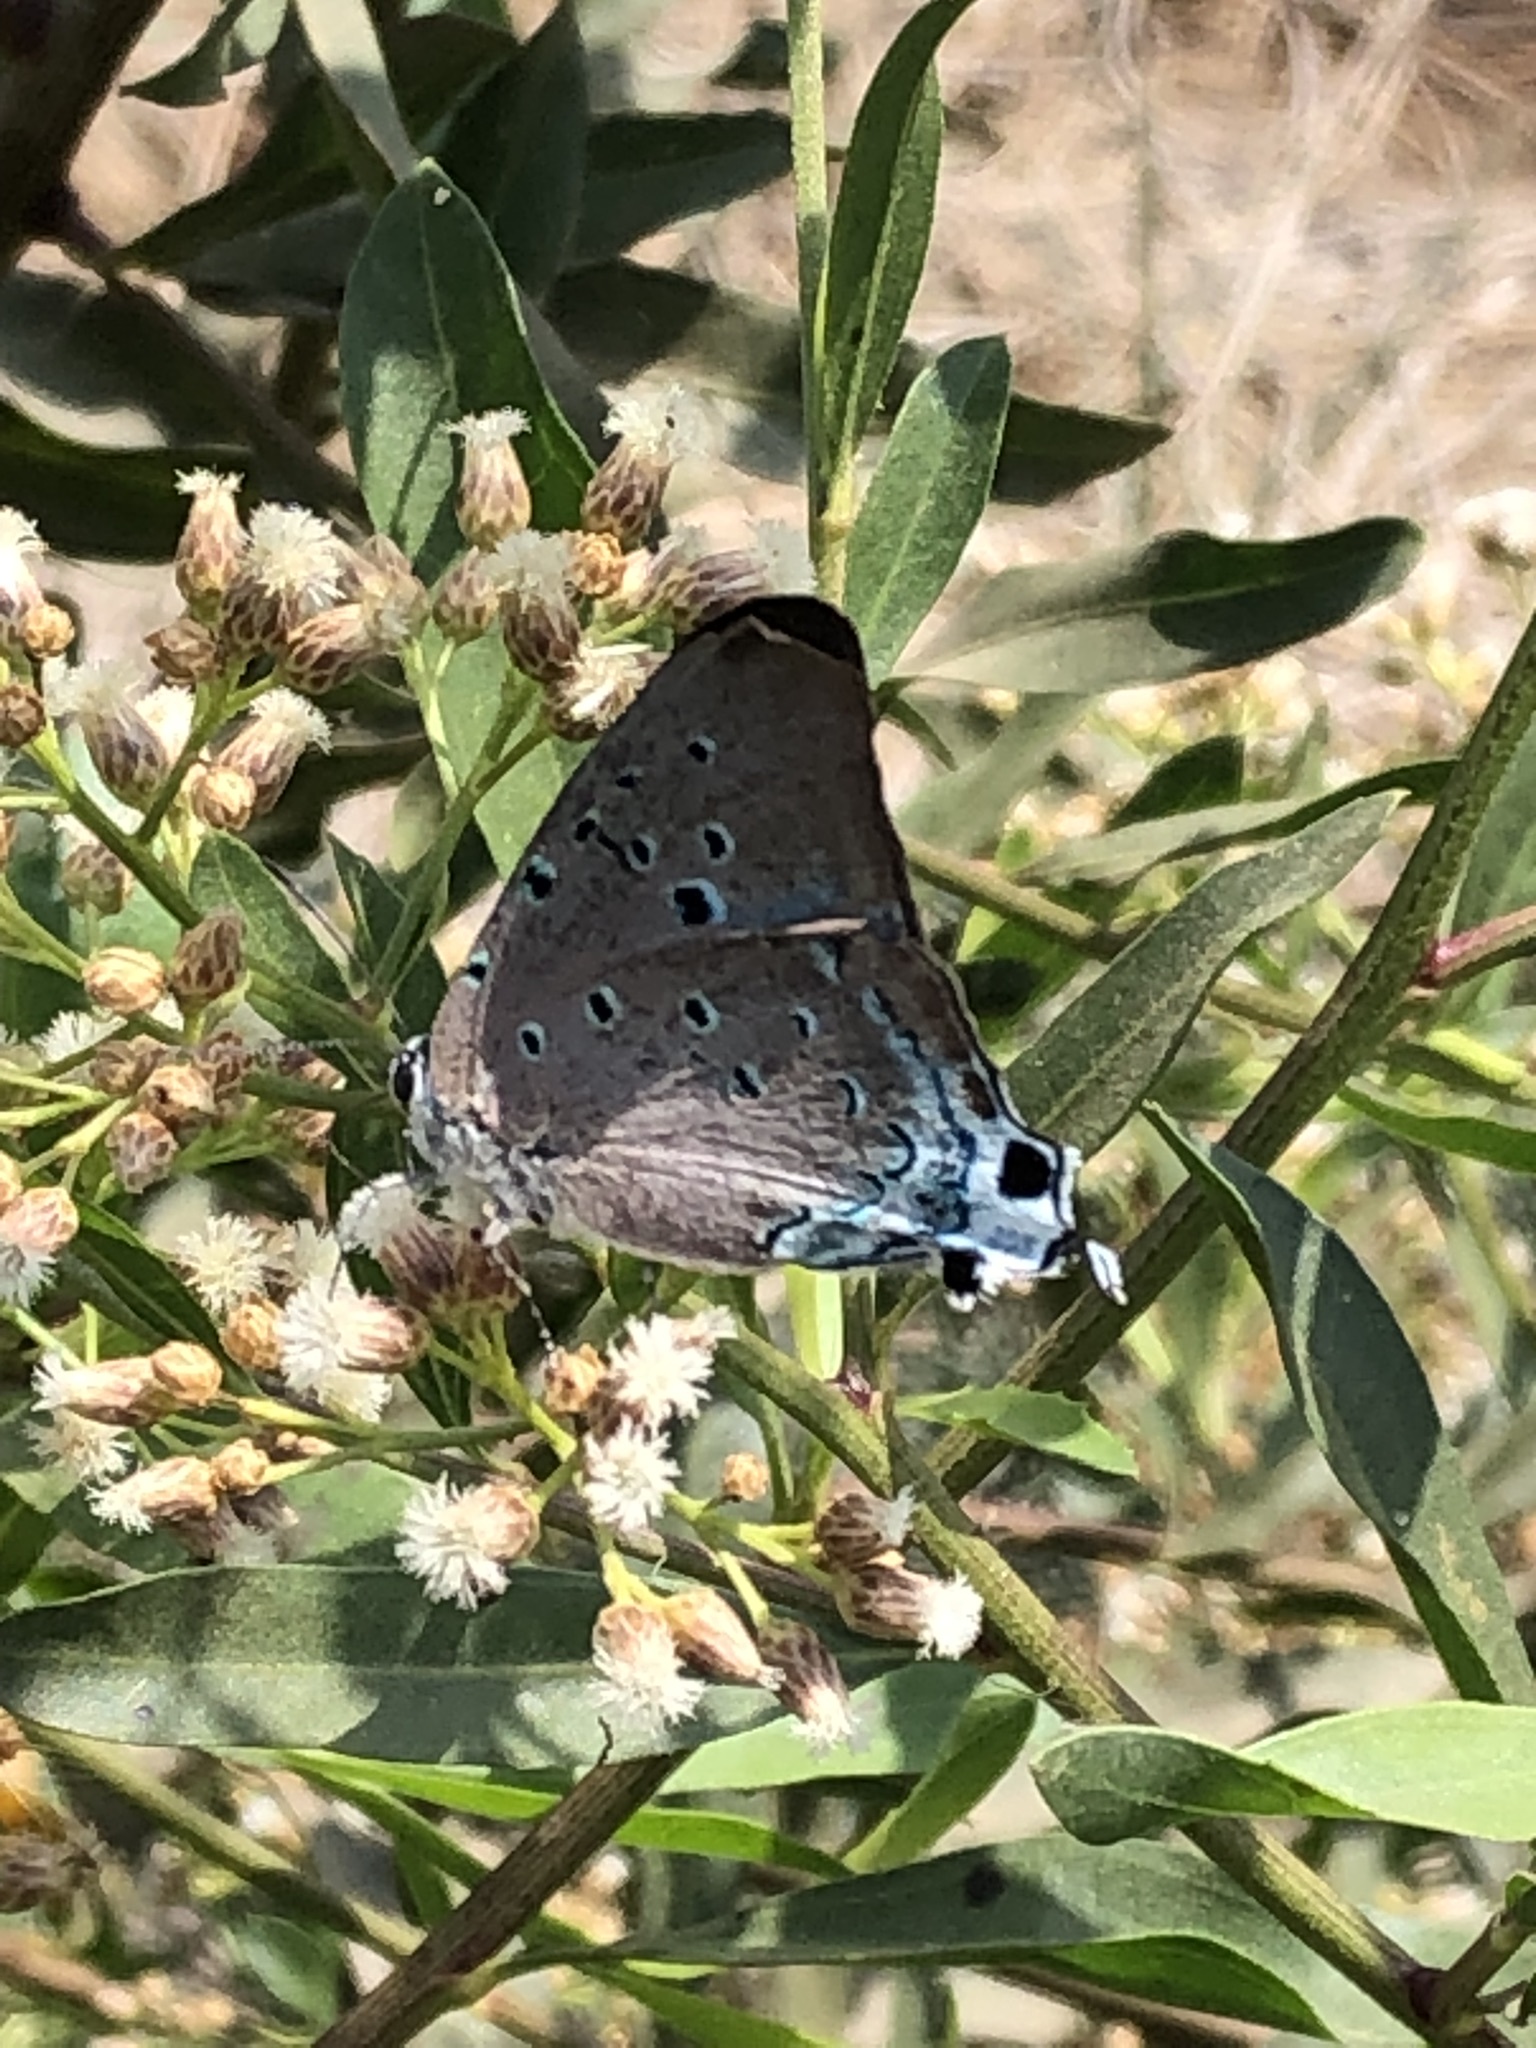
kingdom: Animalia
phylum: Arthropoda
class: Insecta
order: Lepidoptera
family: Lycaenidae
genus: Pseudolycaena
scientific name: Pseudolycaena damo
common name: Sky-blue hairstreak
